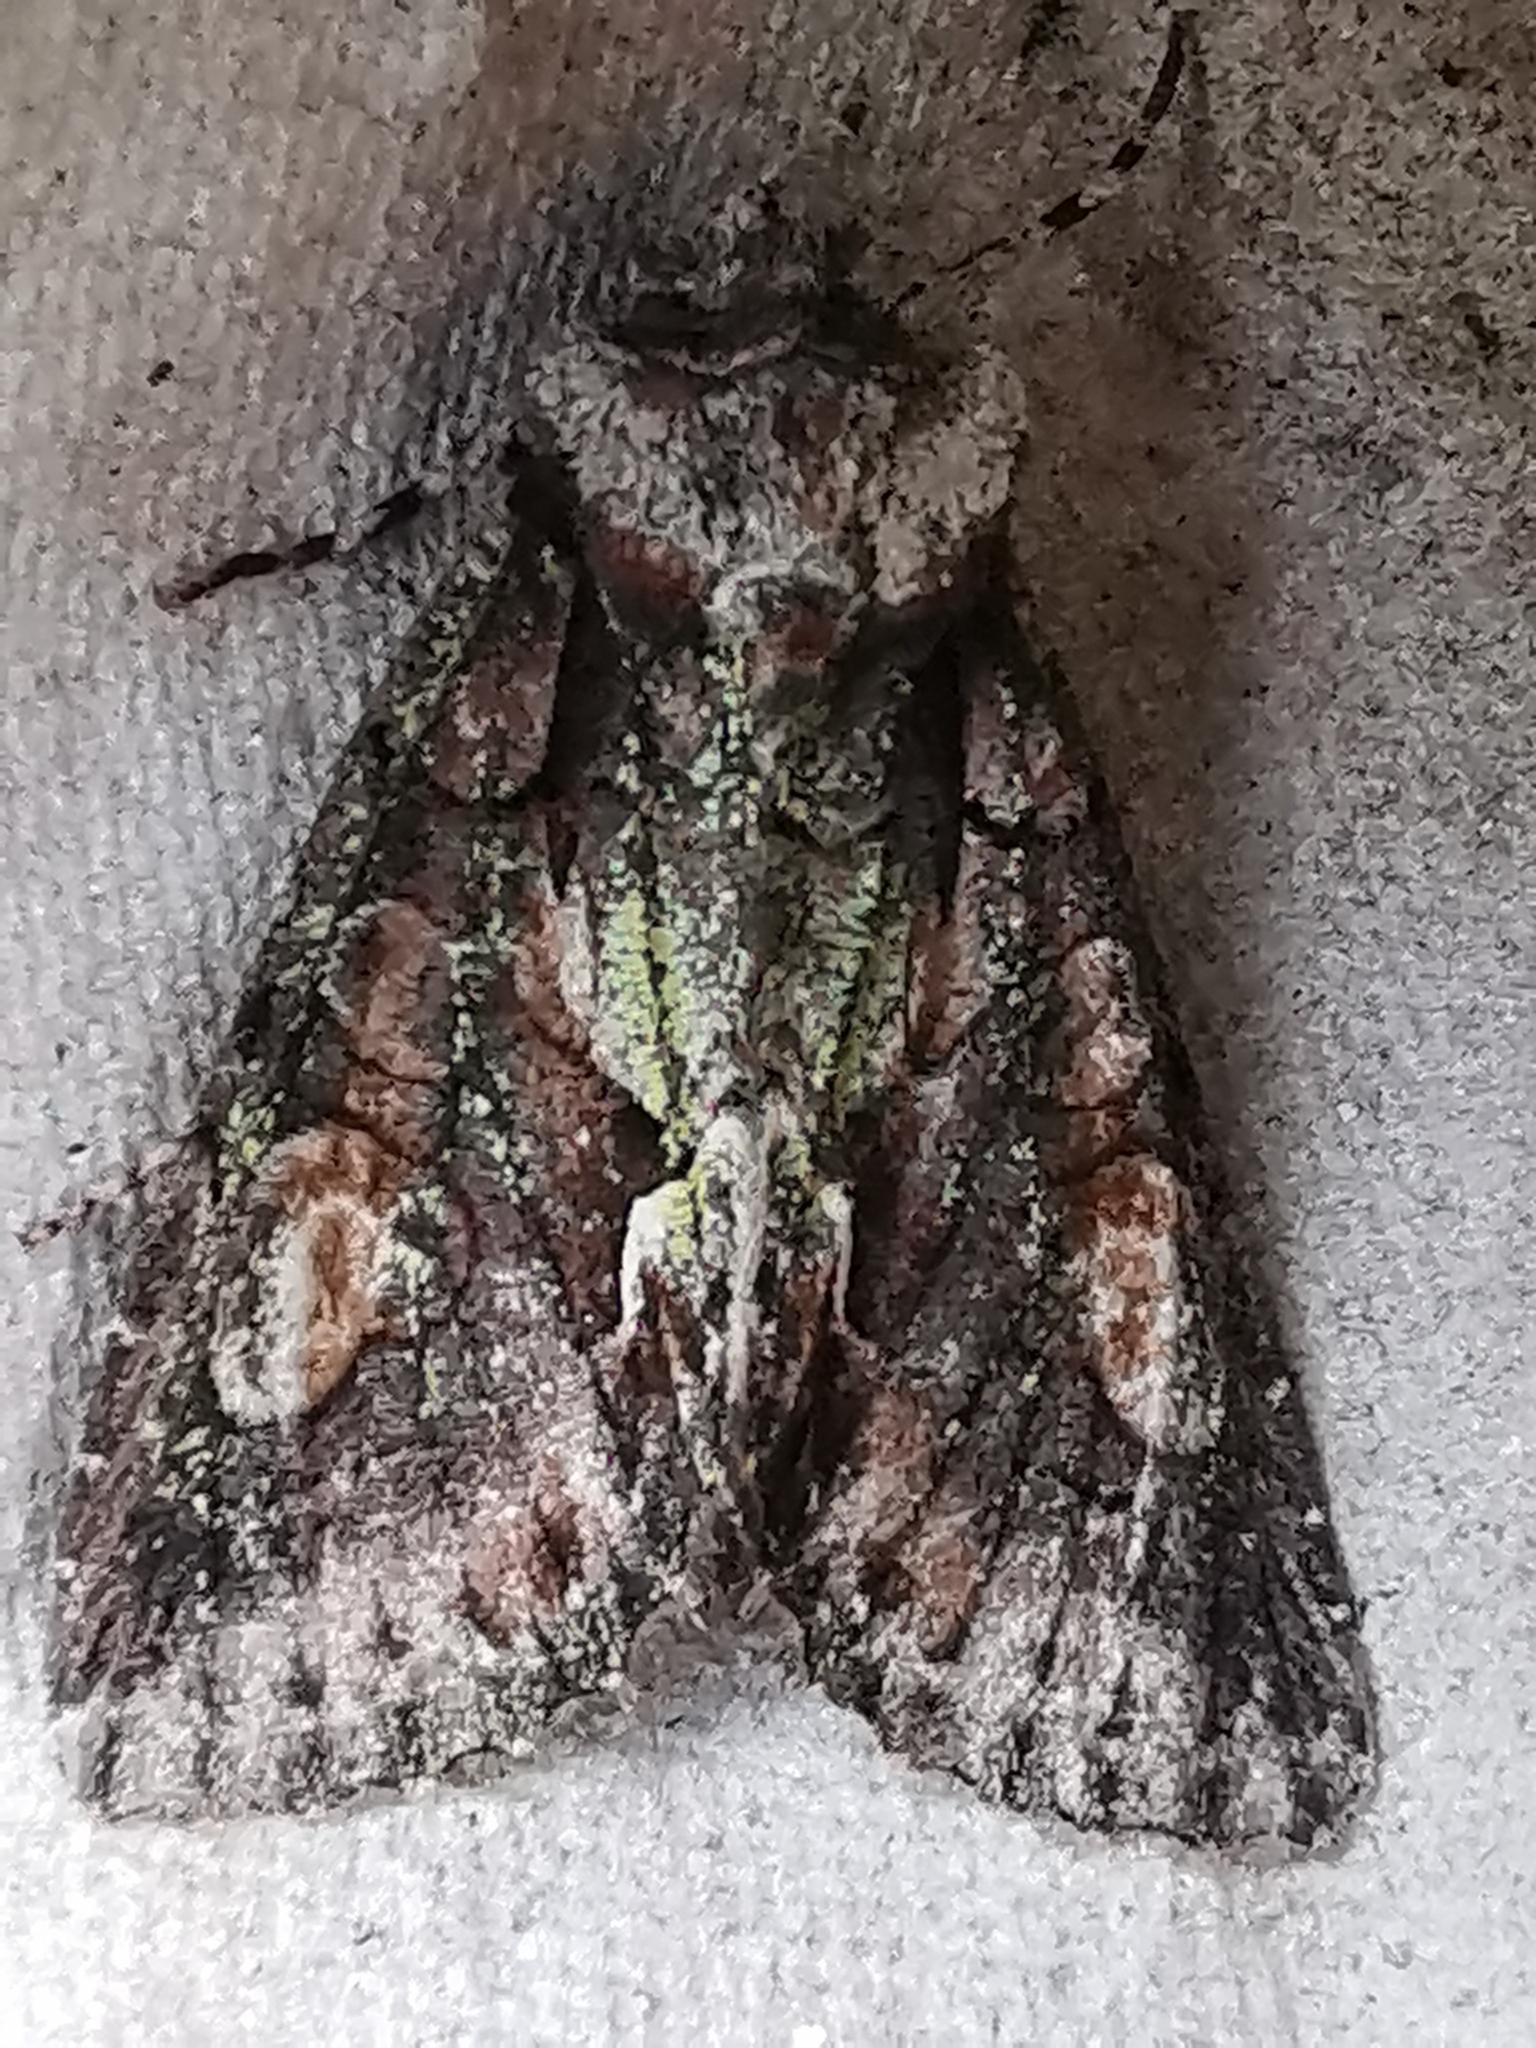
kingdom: Animalia
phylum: Arthropoda
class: Insecta
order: Lepidoptera
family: Noctuidae
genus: Allophyes
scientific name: Allophyes oxyacanthae
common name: Green-brindled crescent
